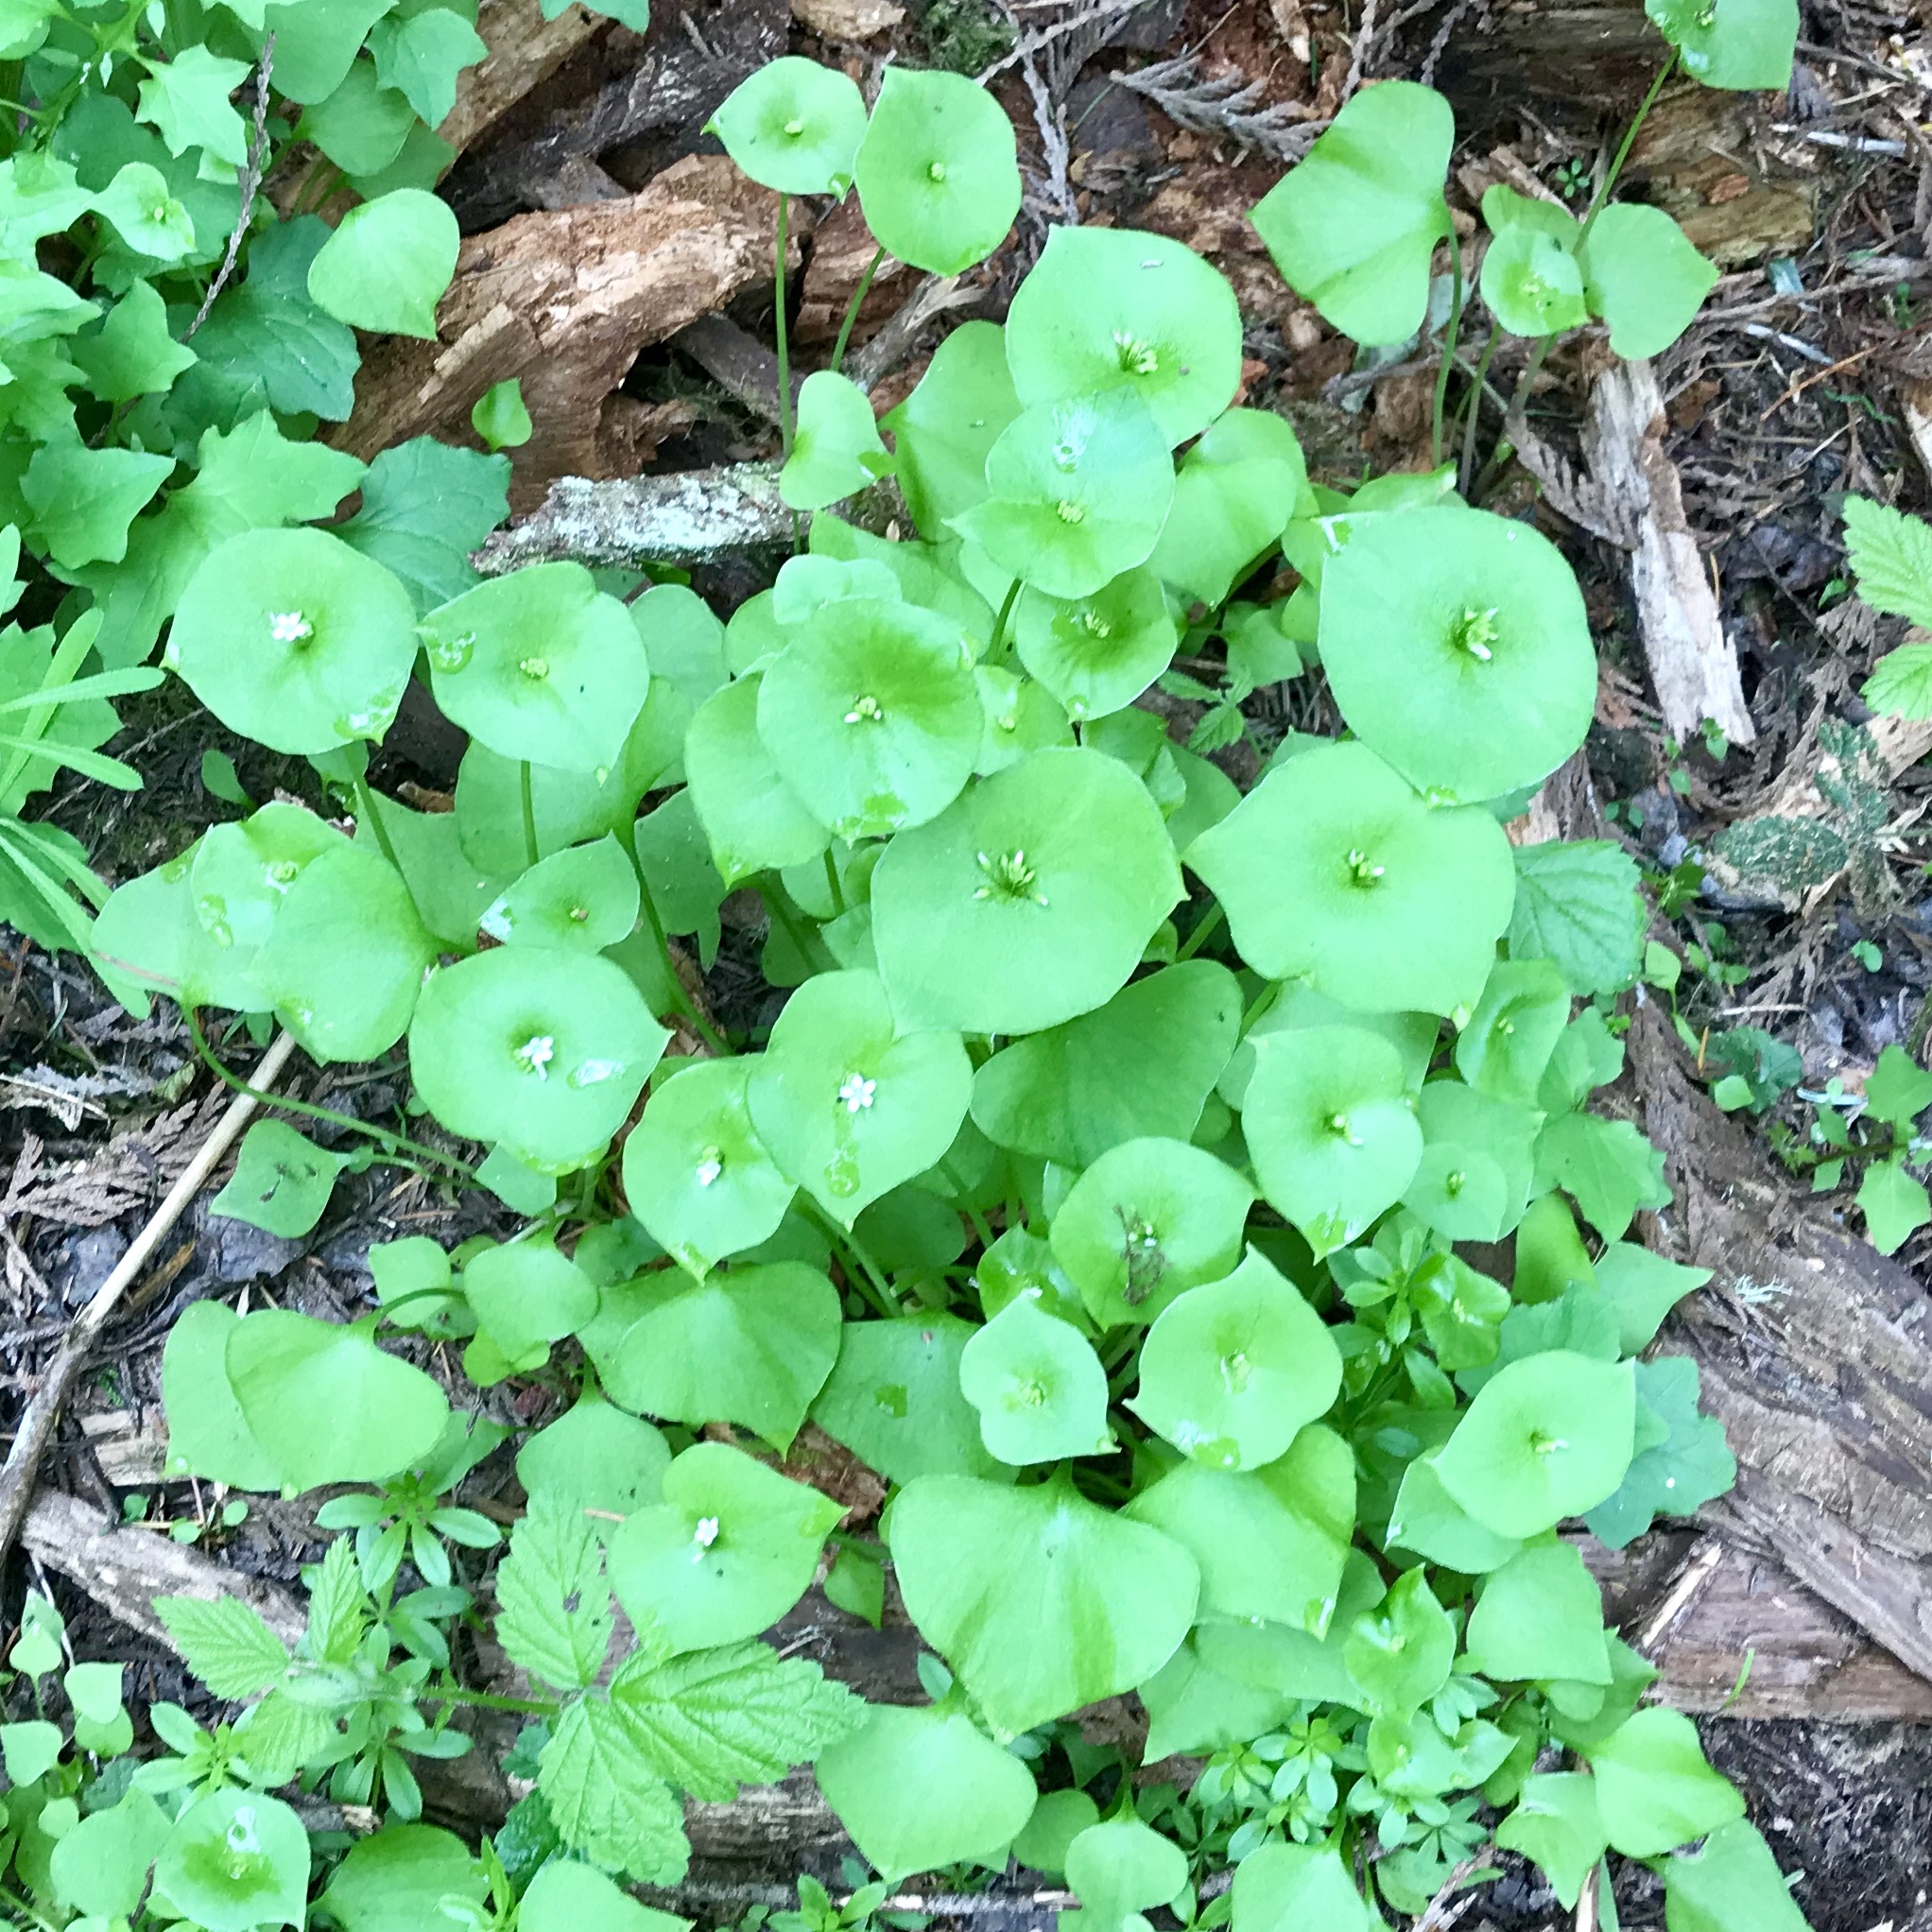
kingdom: Plantae
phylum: Tracheophyta
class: Magnoliopsida
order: Caryophyllales
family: Montiaceae
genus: Claytonia
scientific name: Claytonia perfoliata
